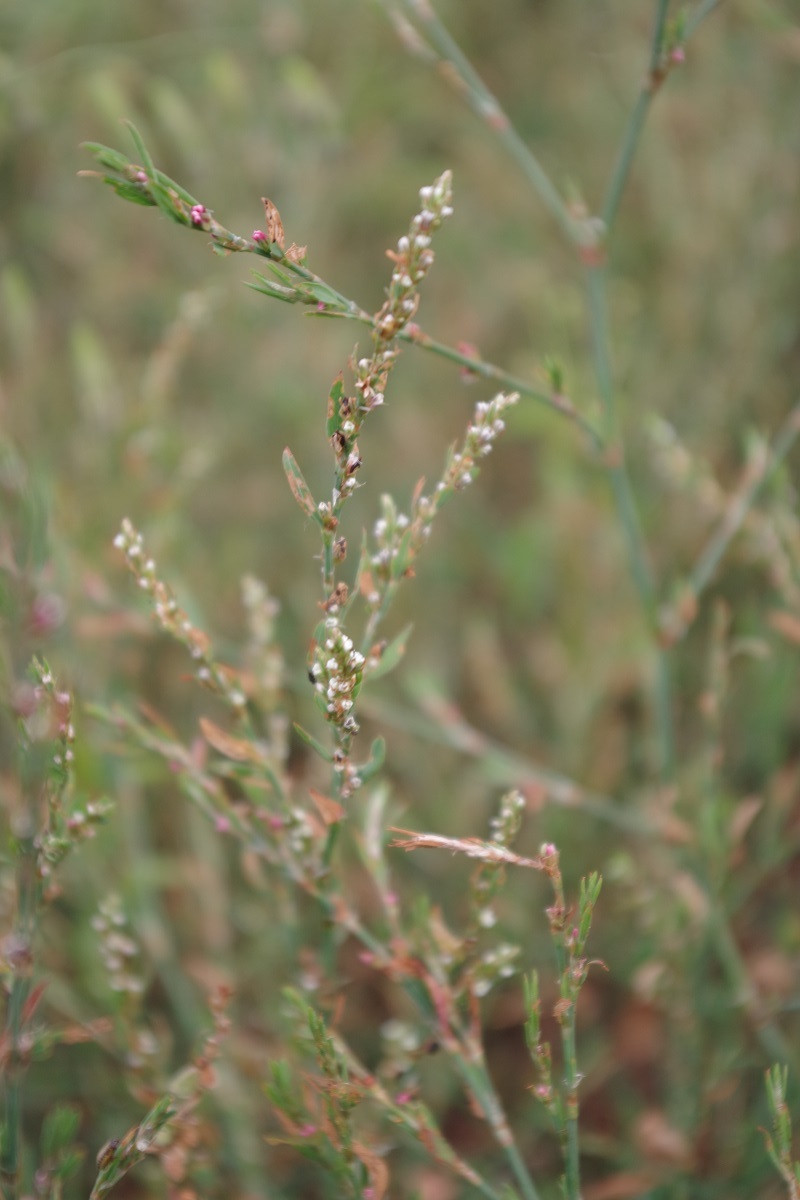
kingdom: Plantae
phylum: Tracheophyta
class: Magnoliopsida
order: Caryophyllales
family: Polygonaceae
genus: Polygonum
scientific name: Polygonum
